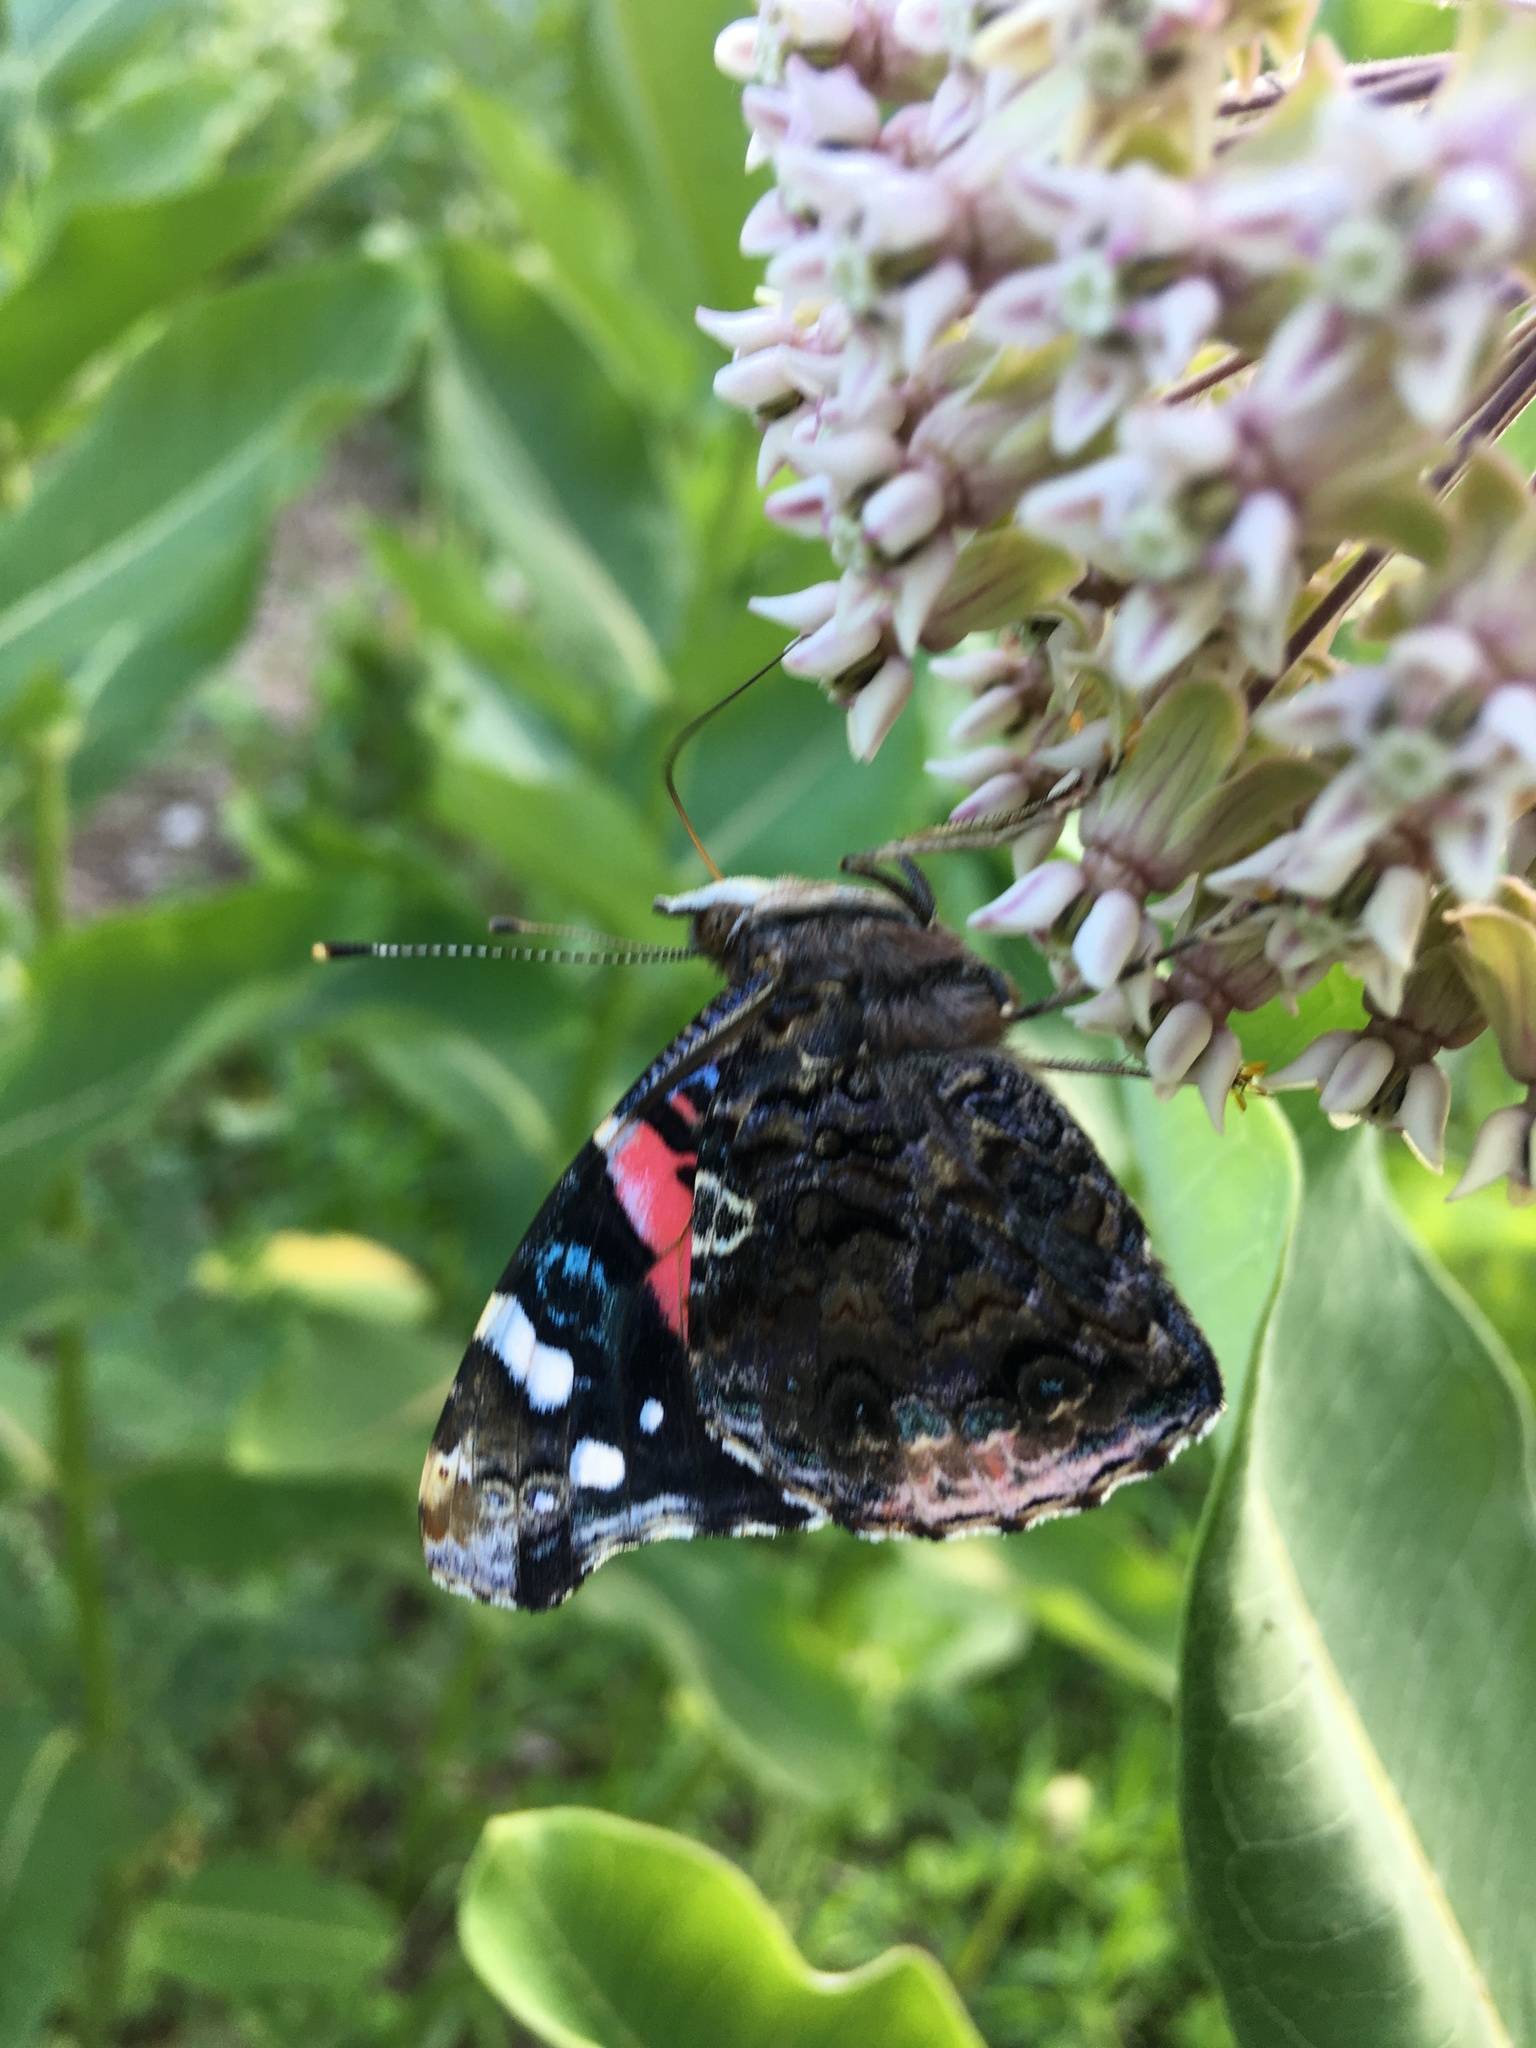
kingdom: Animalia
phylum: Arthropoda
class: Insecta
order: Lepidoptera
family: Nymphalidae
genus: Vanessa
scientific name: Vanessa atalanta
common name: Red admiral
